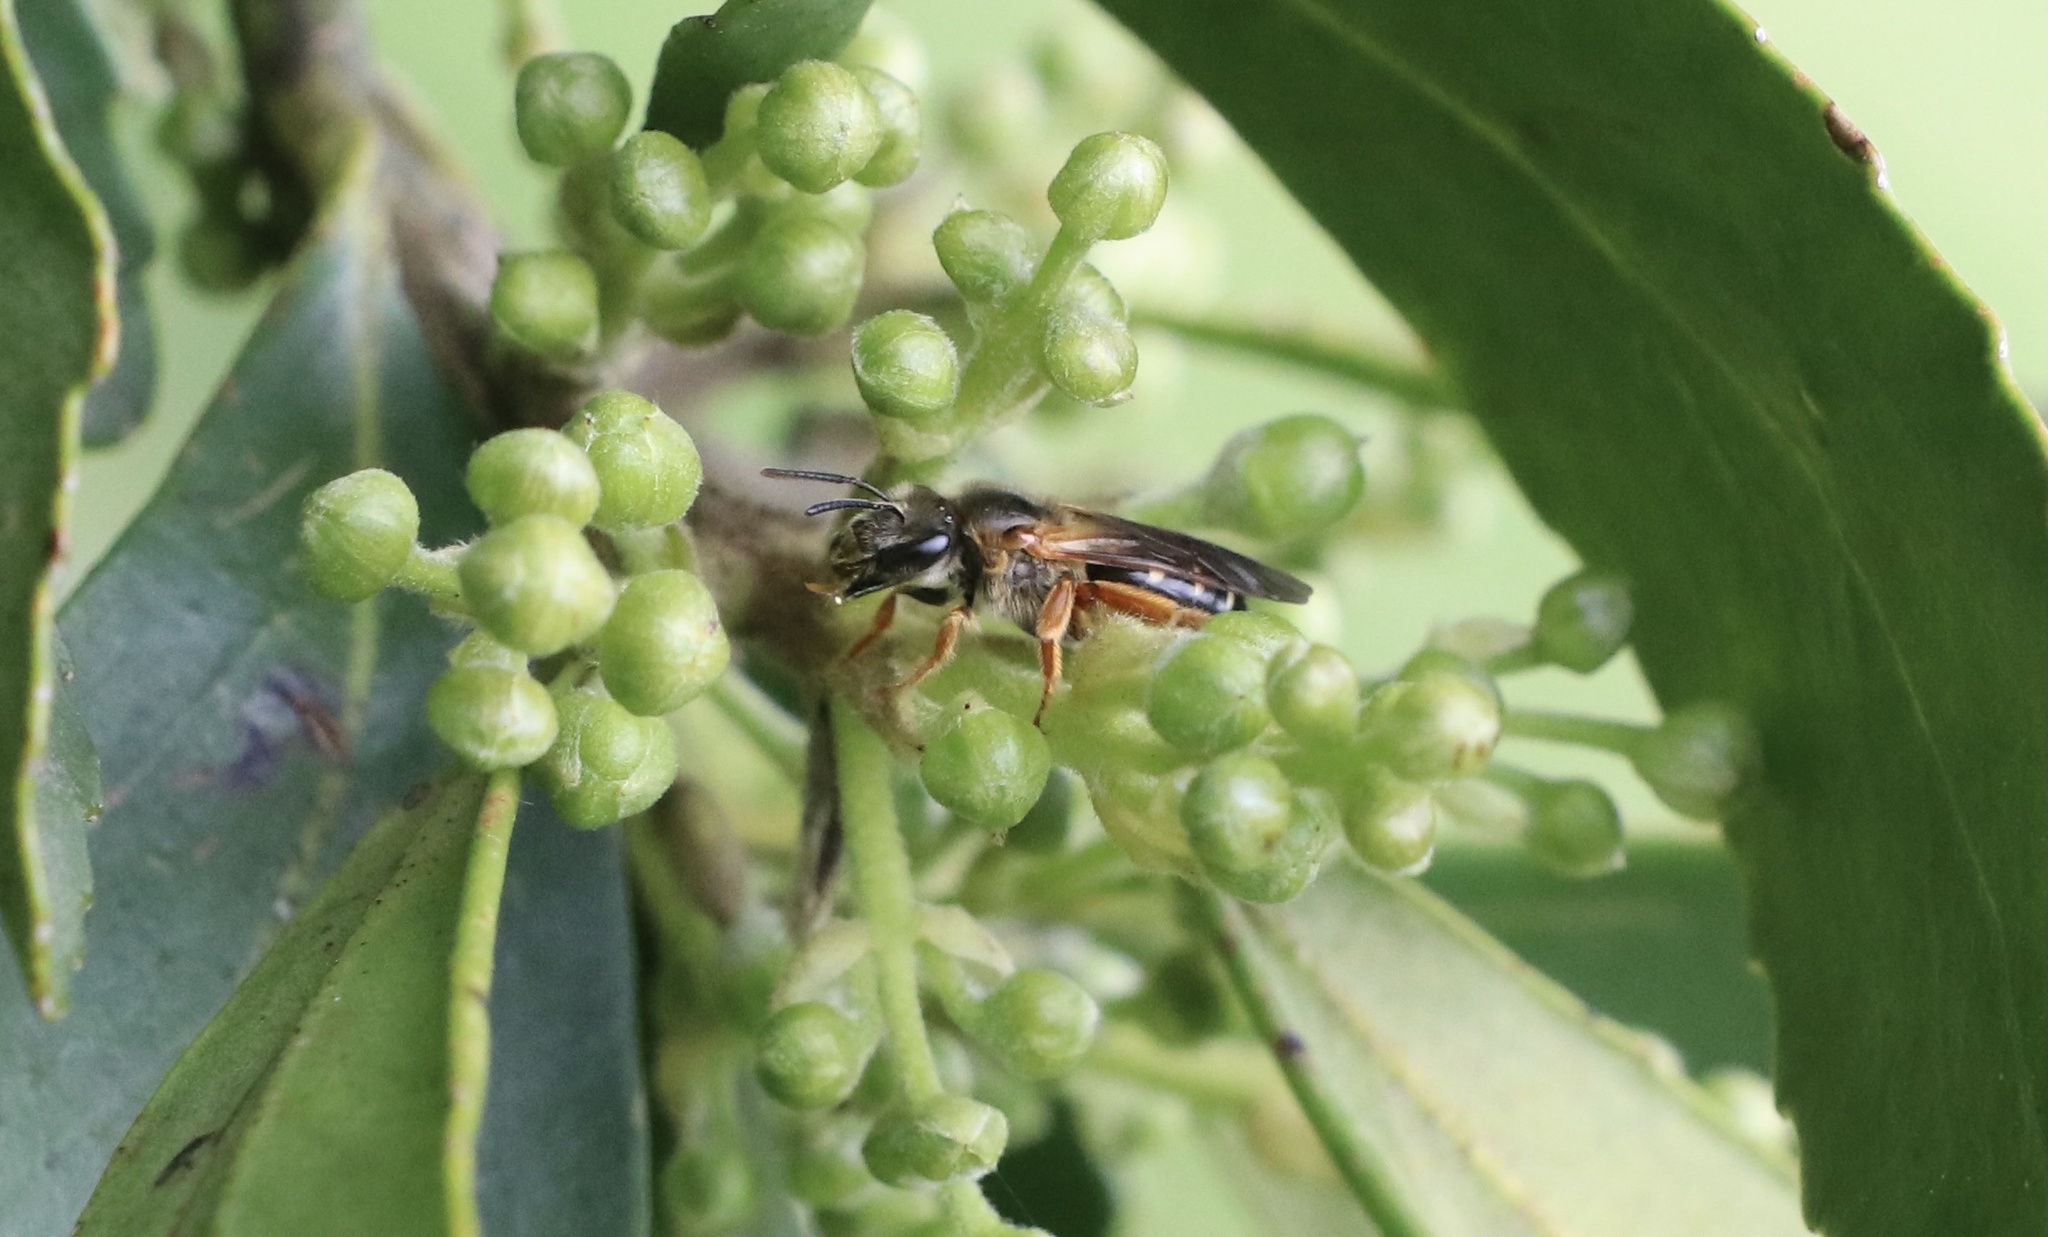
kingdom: Animalia
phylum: Arthropoda
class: Insecta
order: Hymenoptera
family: Halictidae
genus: Ruizantheda
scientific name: Ruizantheda proxima
